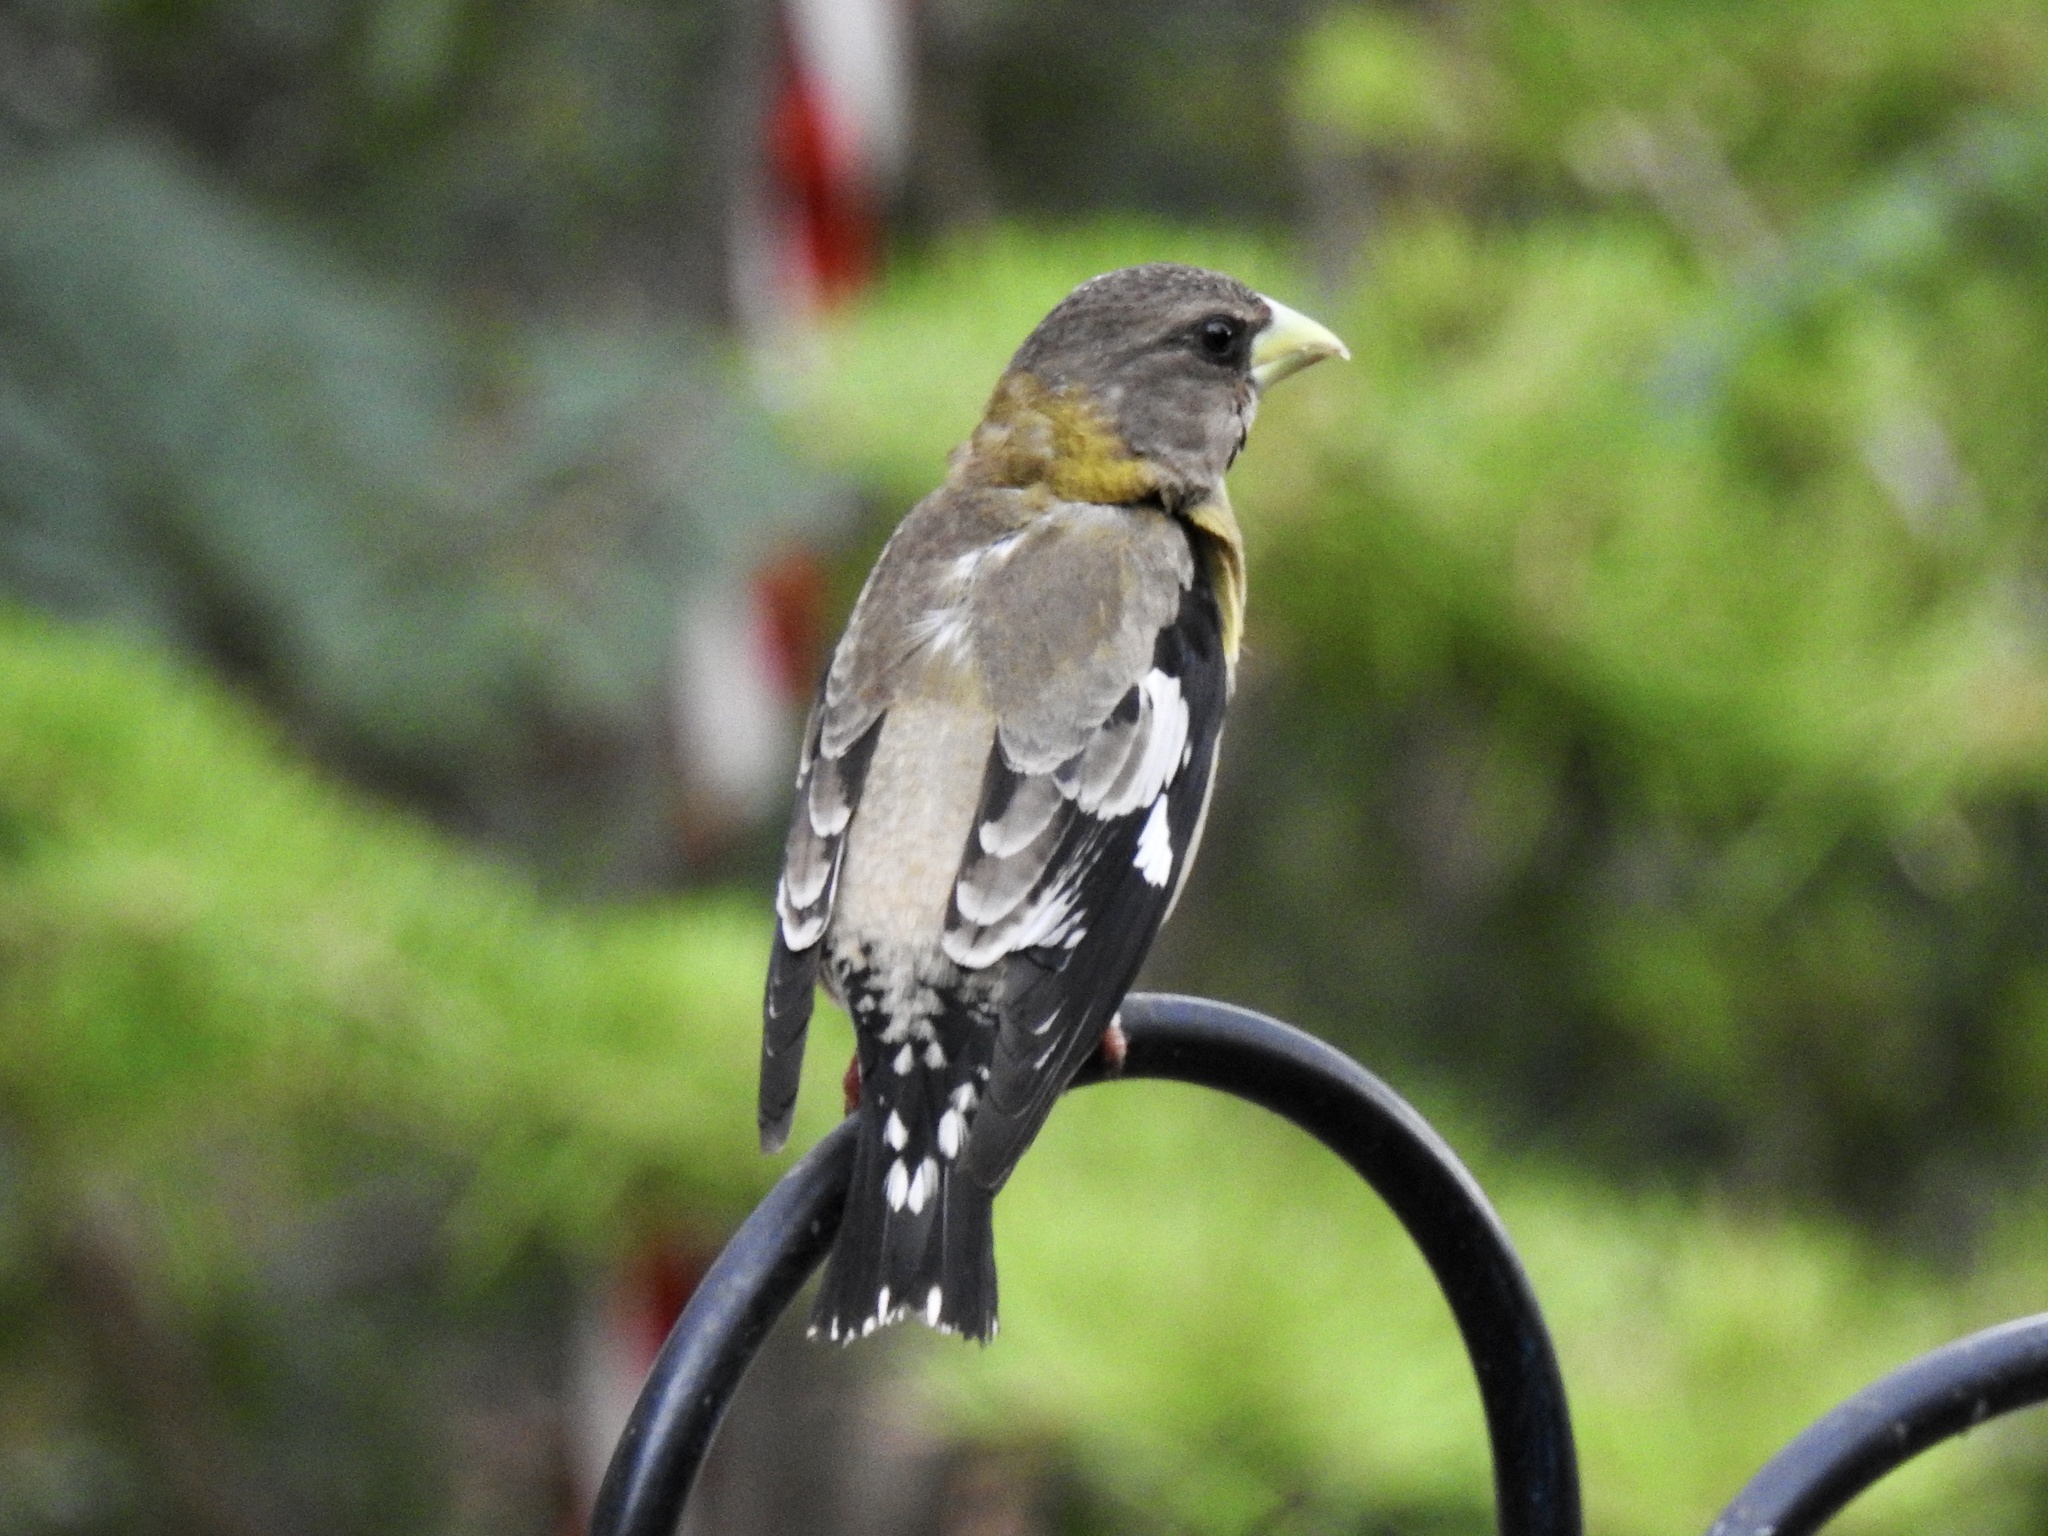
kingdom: Animalia
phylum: Chordata
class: Aves
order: Passeriformes
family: Fringillidae
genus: Hesperiphona
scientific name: Hesperiphona vespertina
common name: Evening grosbeak
